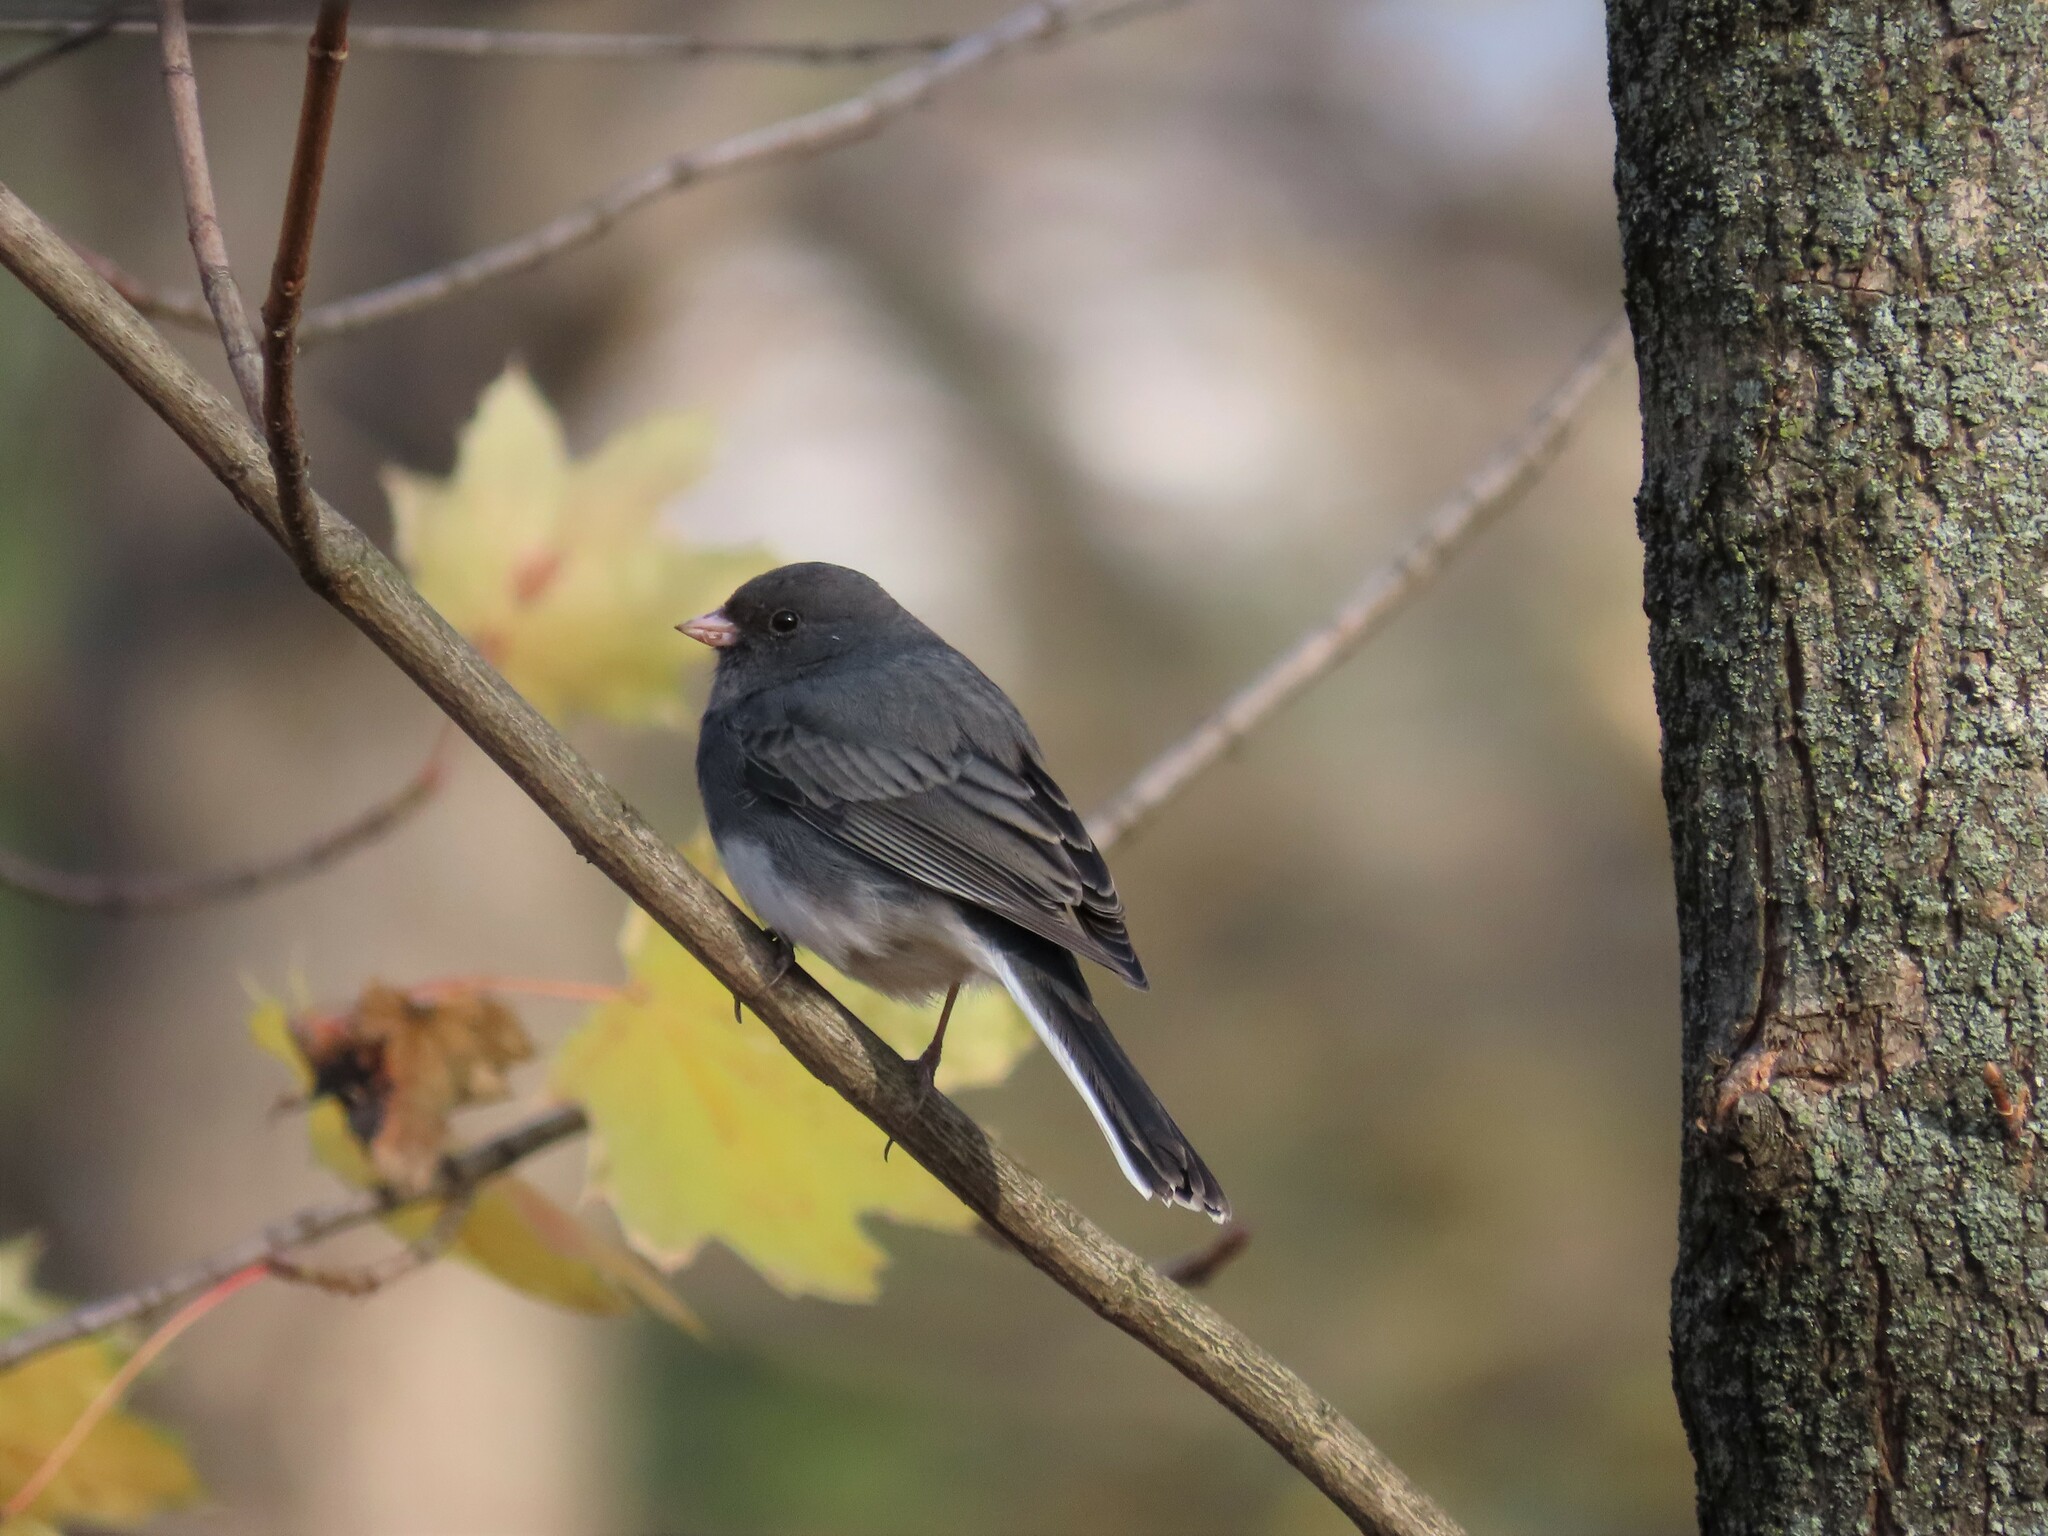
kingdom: Animalia
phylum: Chordata
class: Aves
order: Passeriformes
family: Passerellidae
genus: Junco
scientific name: Junco hyemalis
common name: Dark-eyed junco
